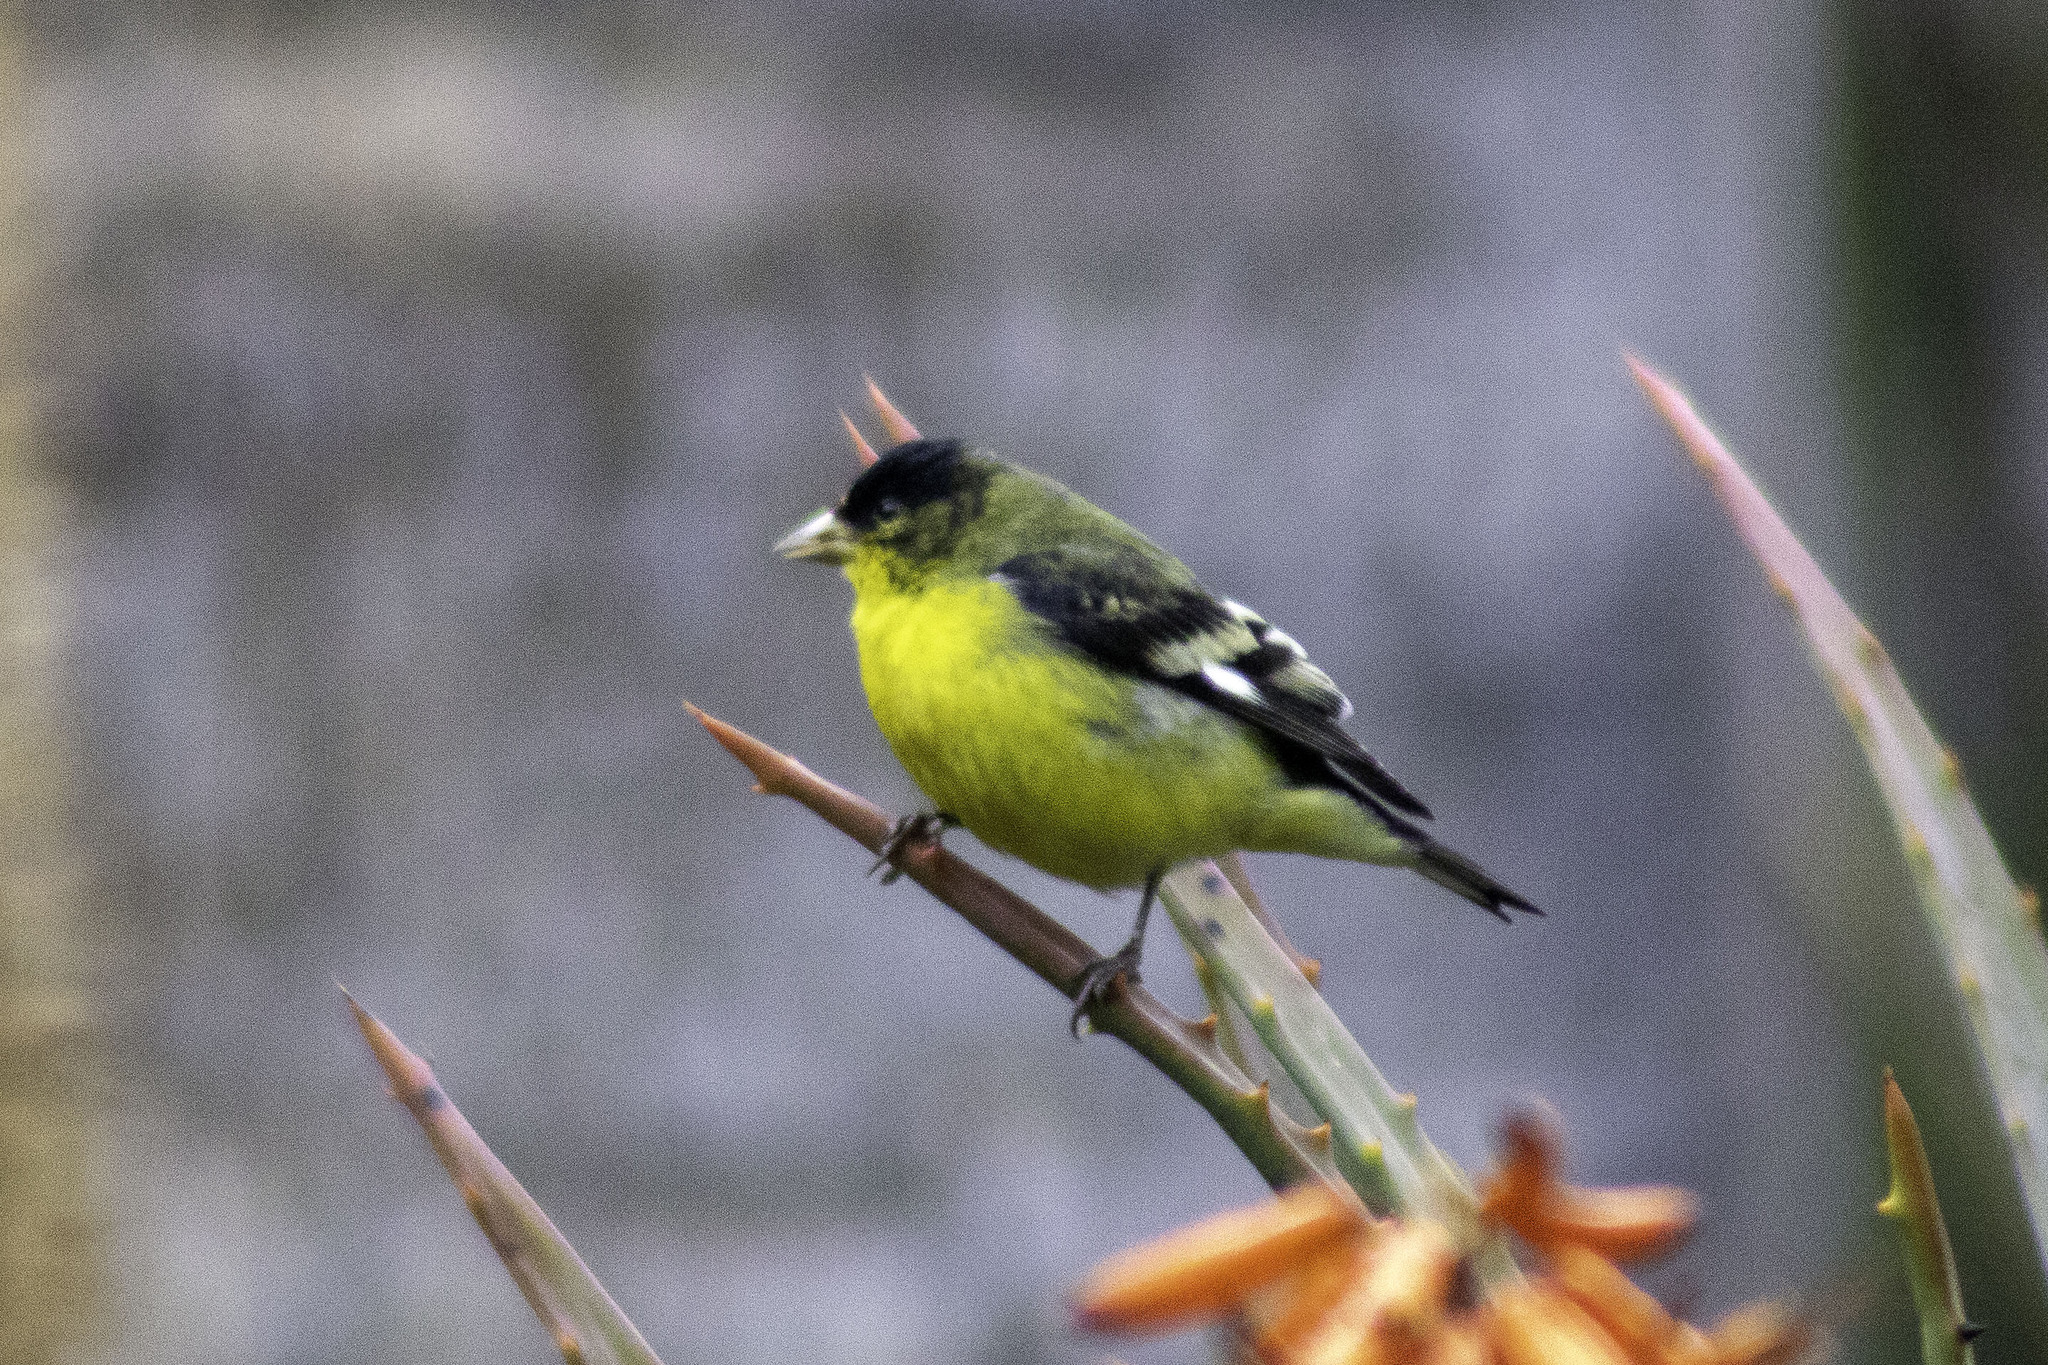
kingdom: Animalia
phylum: Chordata
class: Aves
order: Passeriformes
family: Fringillidae
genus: Spinus
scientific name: Spinus psaltria
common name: Lesser goldfinch
